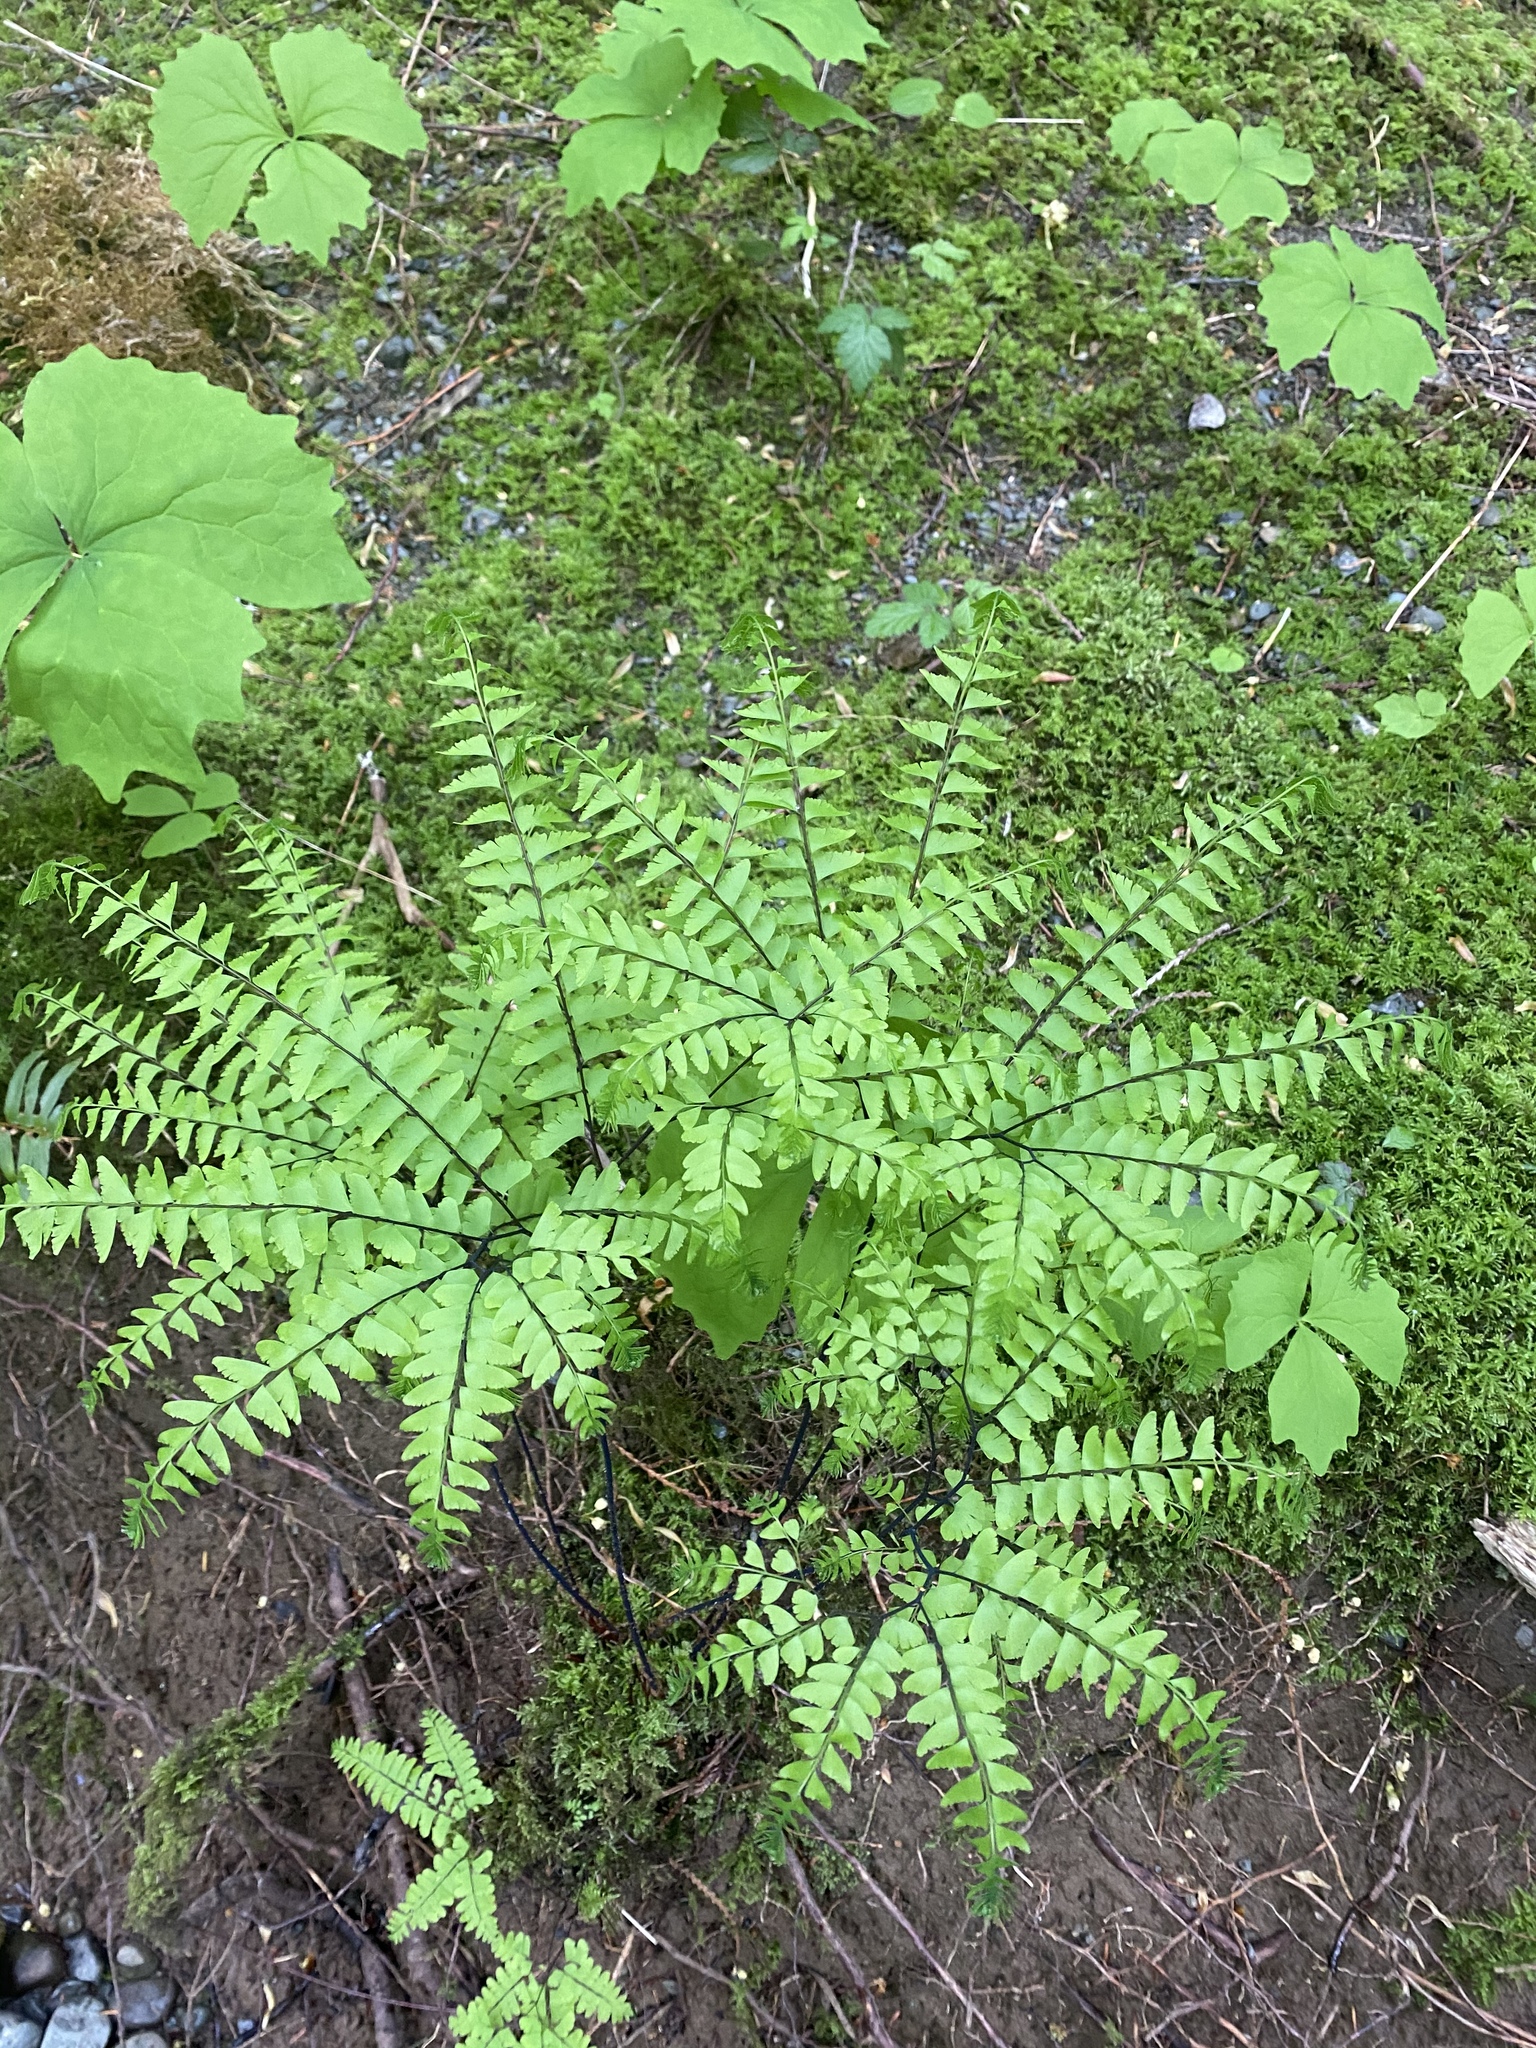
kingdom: Plantae
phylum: Tracheophyta
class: Polypodiopsida
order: Polypodiales
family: Pteridaceae
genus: Adiantum
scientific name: Adiantum aleuticum
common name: Aleutian maidenhair fern
